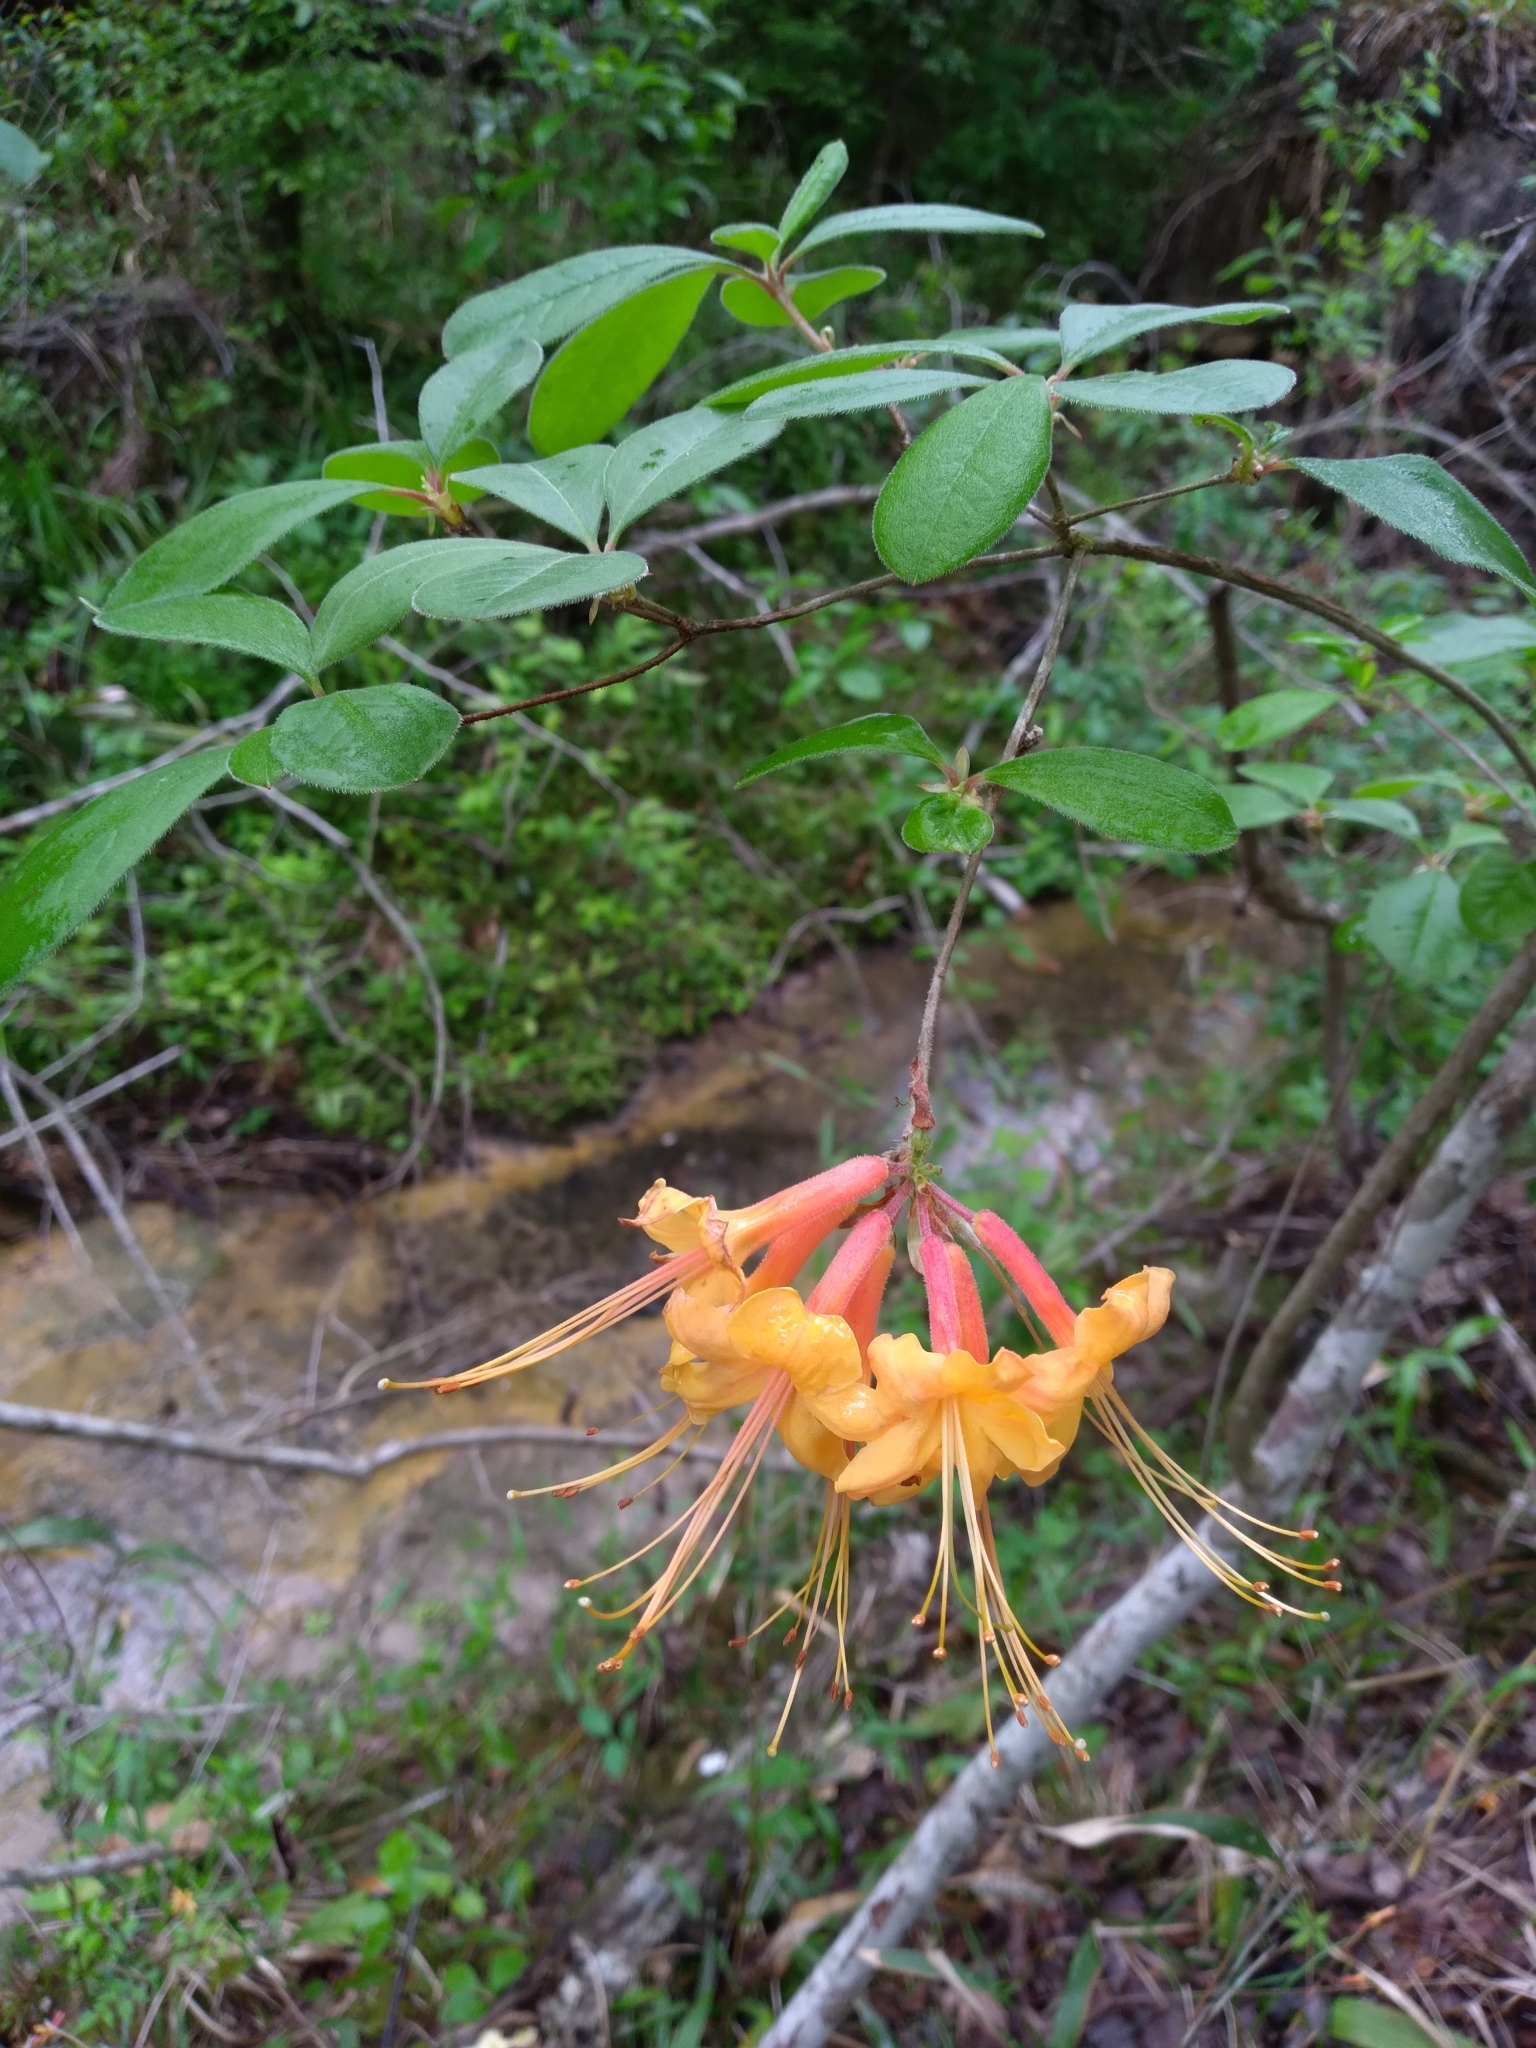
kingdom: Plantae
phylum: Tracheophyta
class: Magnoliopsida
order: Ericales
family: Ericaceae
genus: Rhododendron
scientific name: Rhododendron austrinum
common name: Florida azalea
